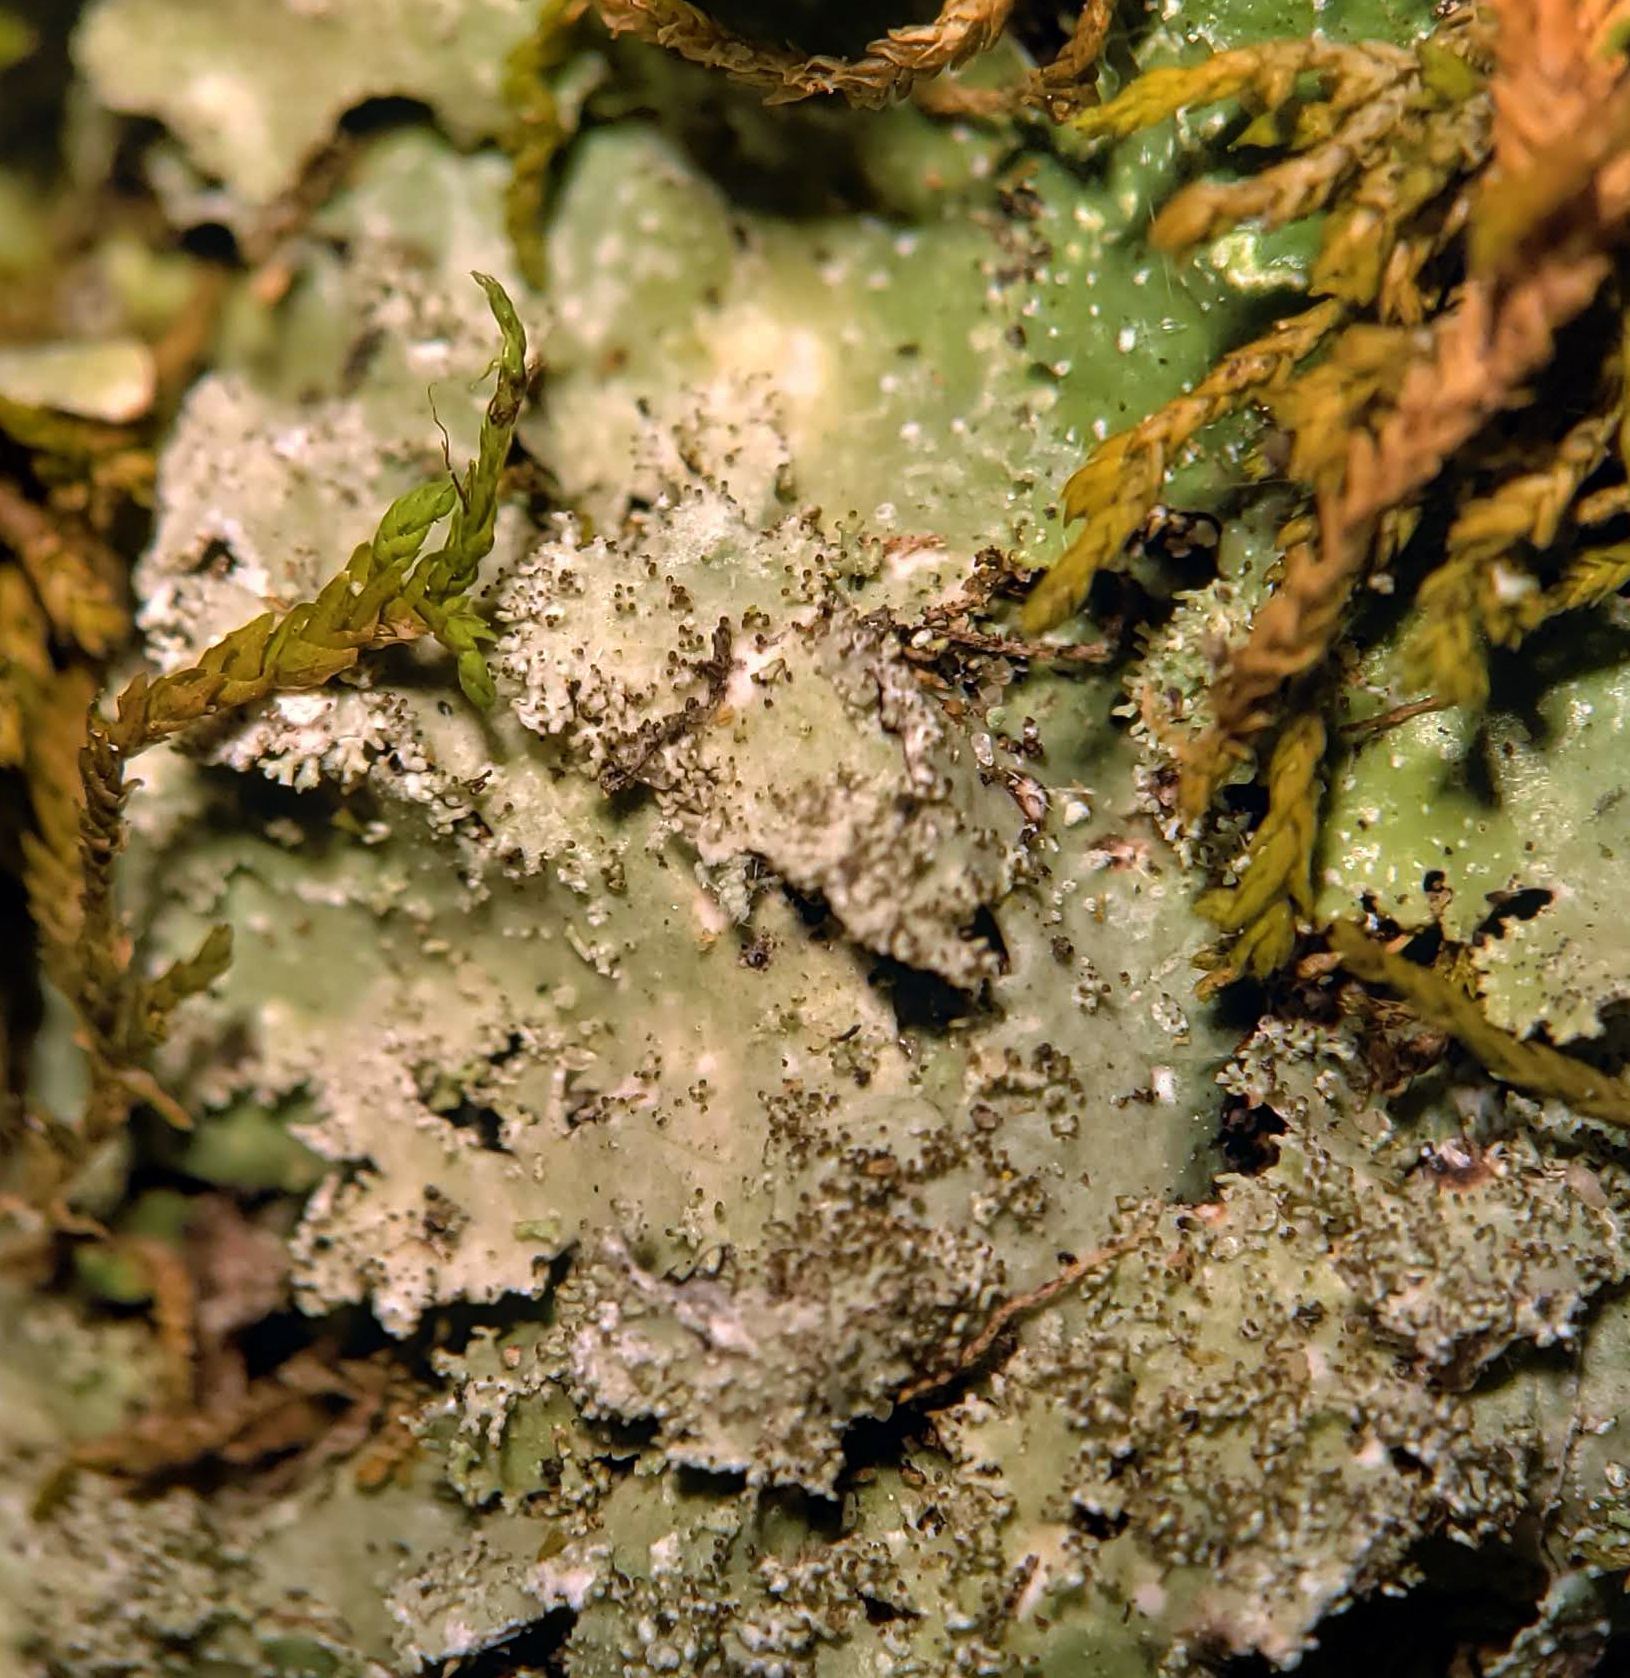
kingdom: Fungi
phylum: Ascomycota
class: Lecanoromycetes
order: Lecanorales
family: Parmeliaceae
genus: Punctelia
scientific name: Punctelia rudecta
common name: Rough speckled shield lichen
